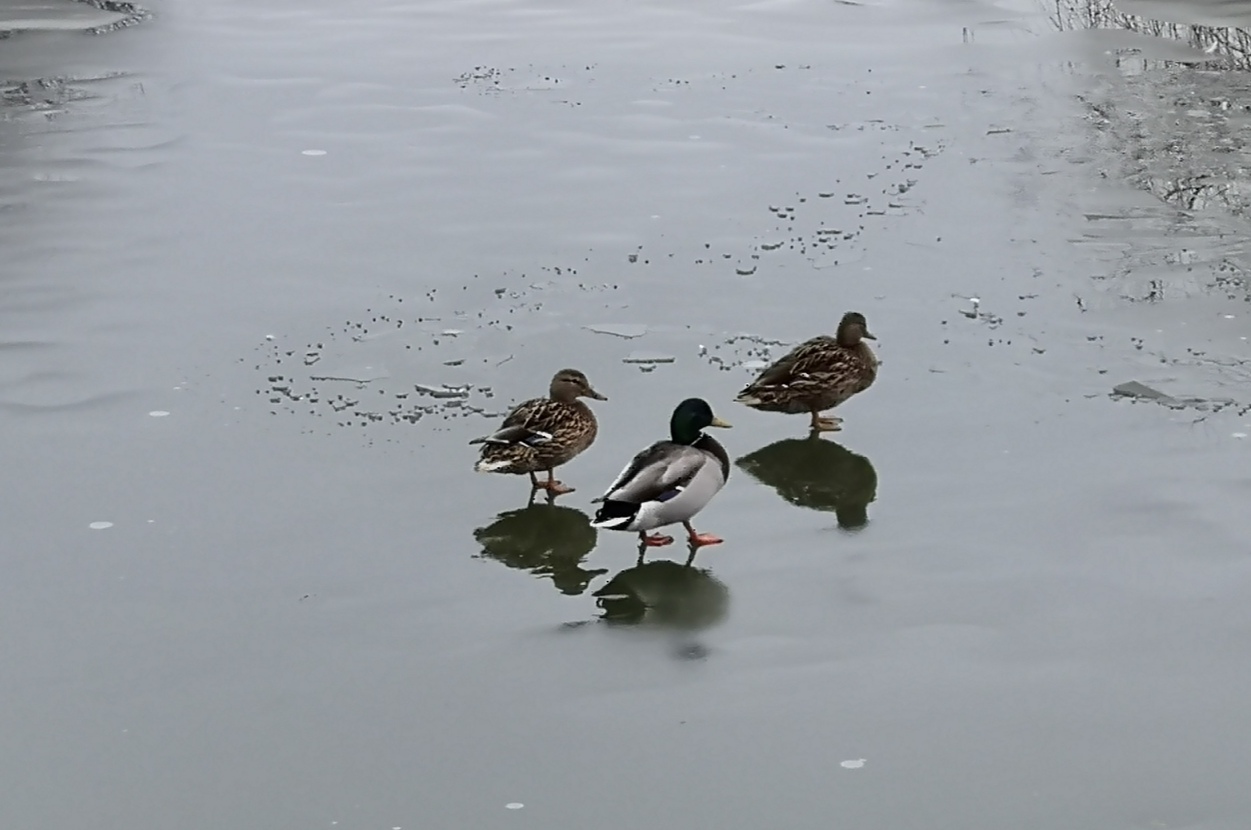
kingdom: Animalia
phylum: Chordata
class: Aves
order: Anseriformes
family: Anatidae
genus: Anas
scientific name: Anas platyrhynchos
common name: Mallard
